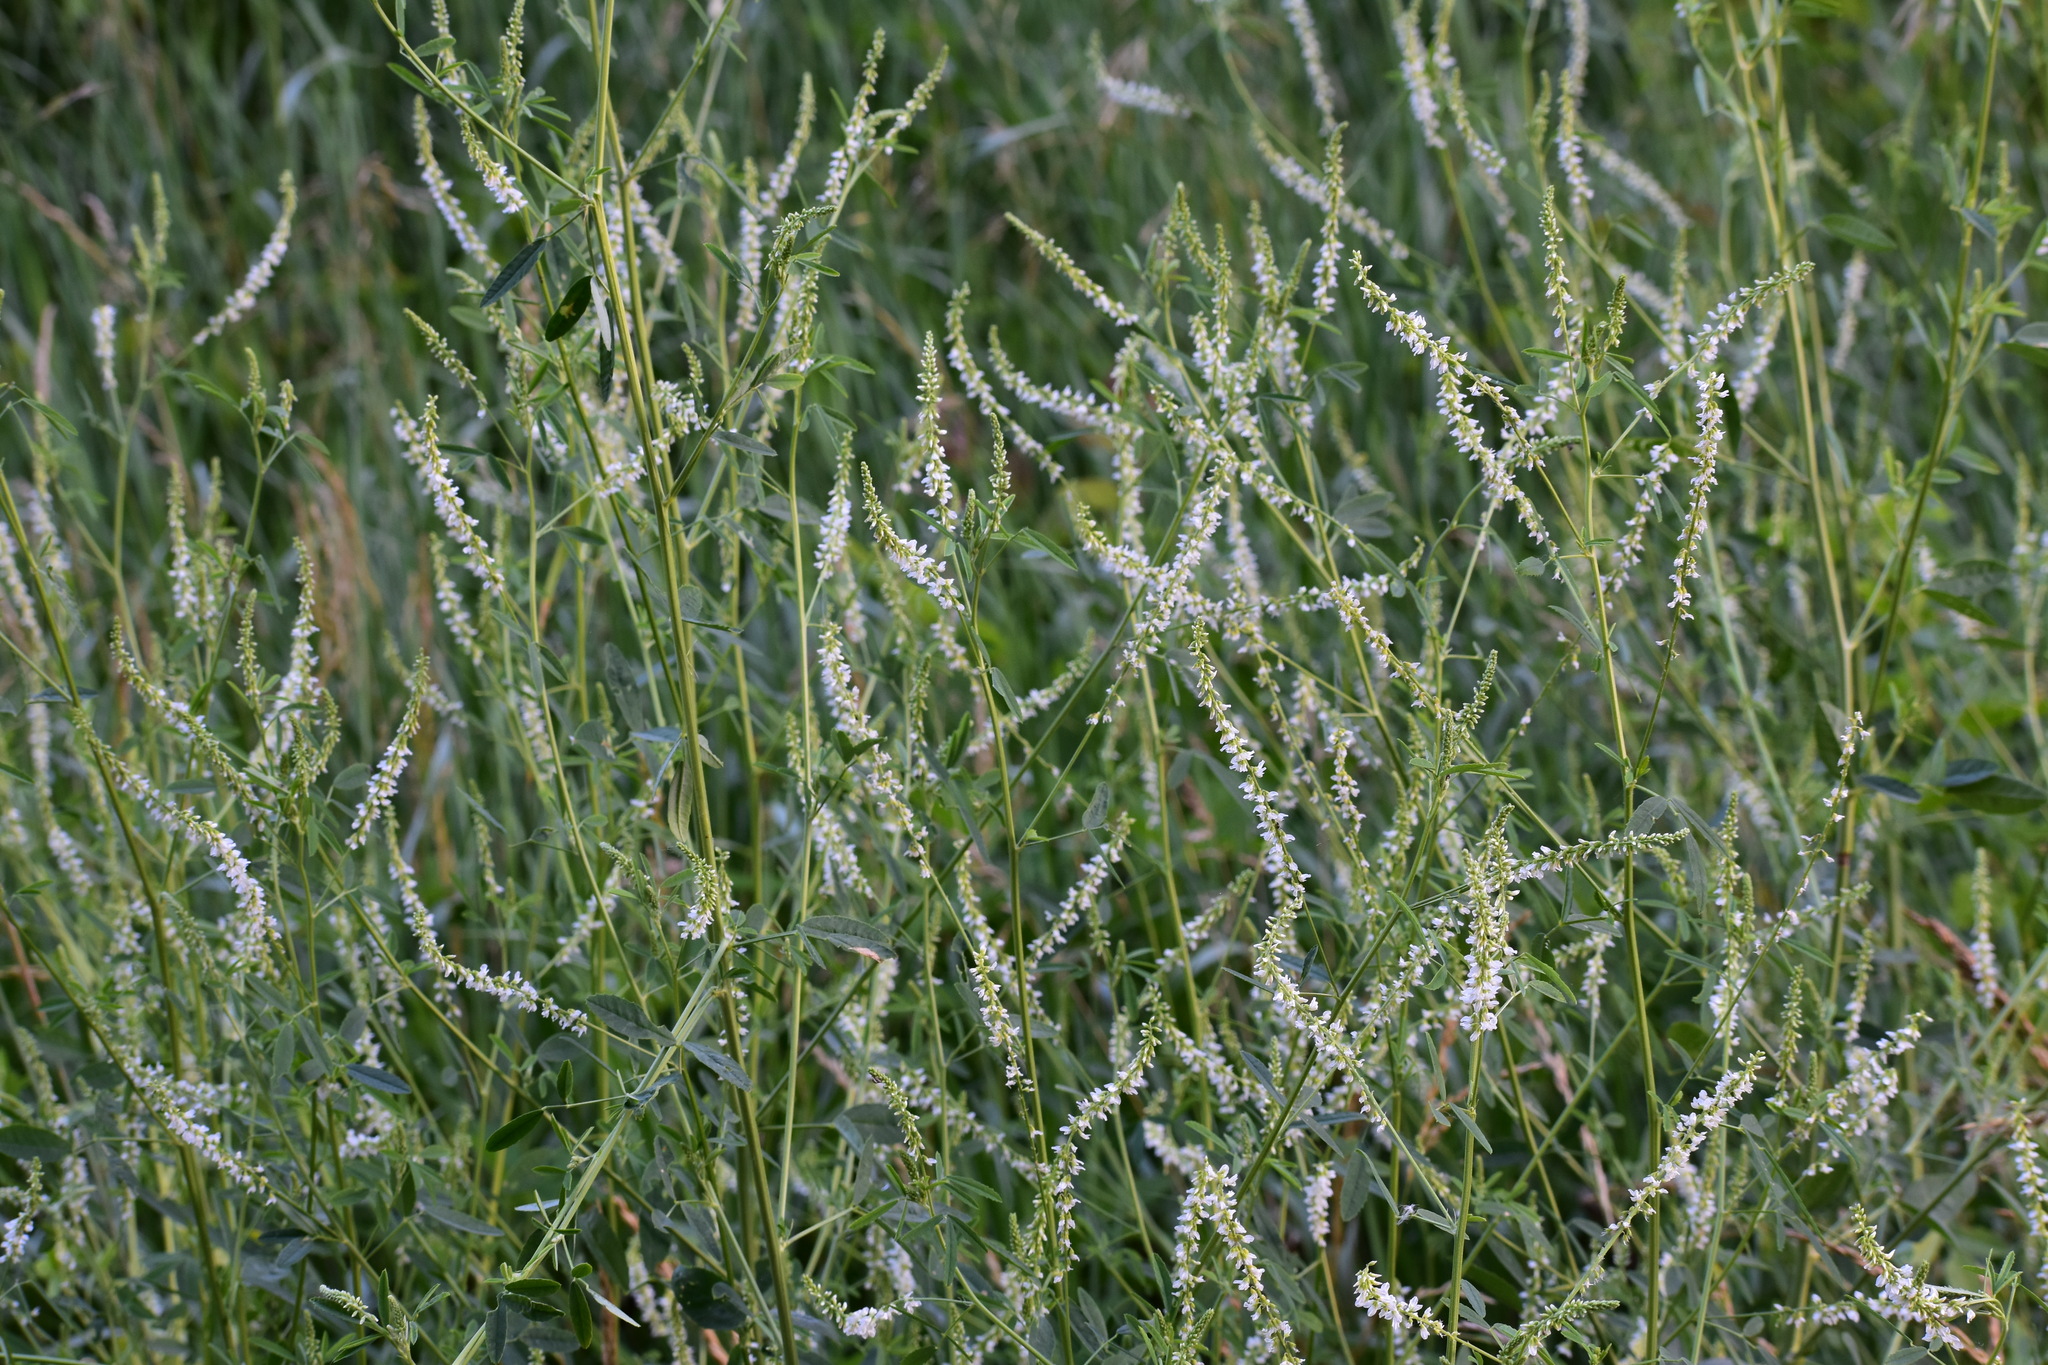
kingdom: Plantae
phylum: Tracheophyta
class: Magnoliopsida
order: Fabales
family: Fabaceae
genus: Melilotus
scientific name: Melilotus albus
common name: White melilot
